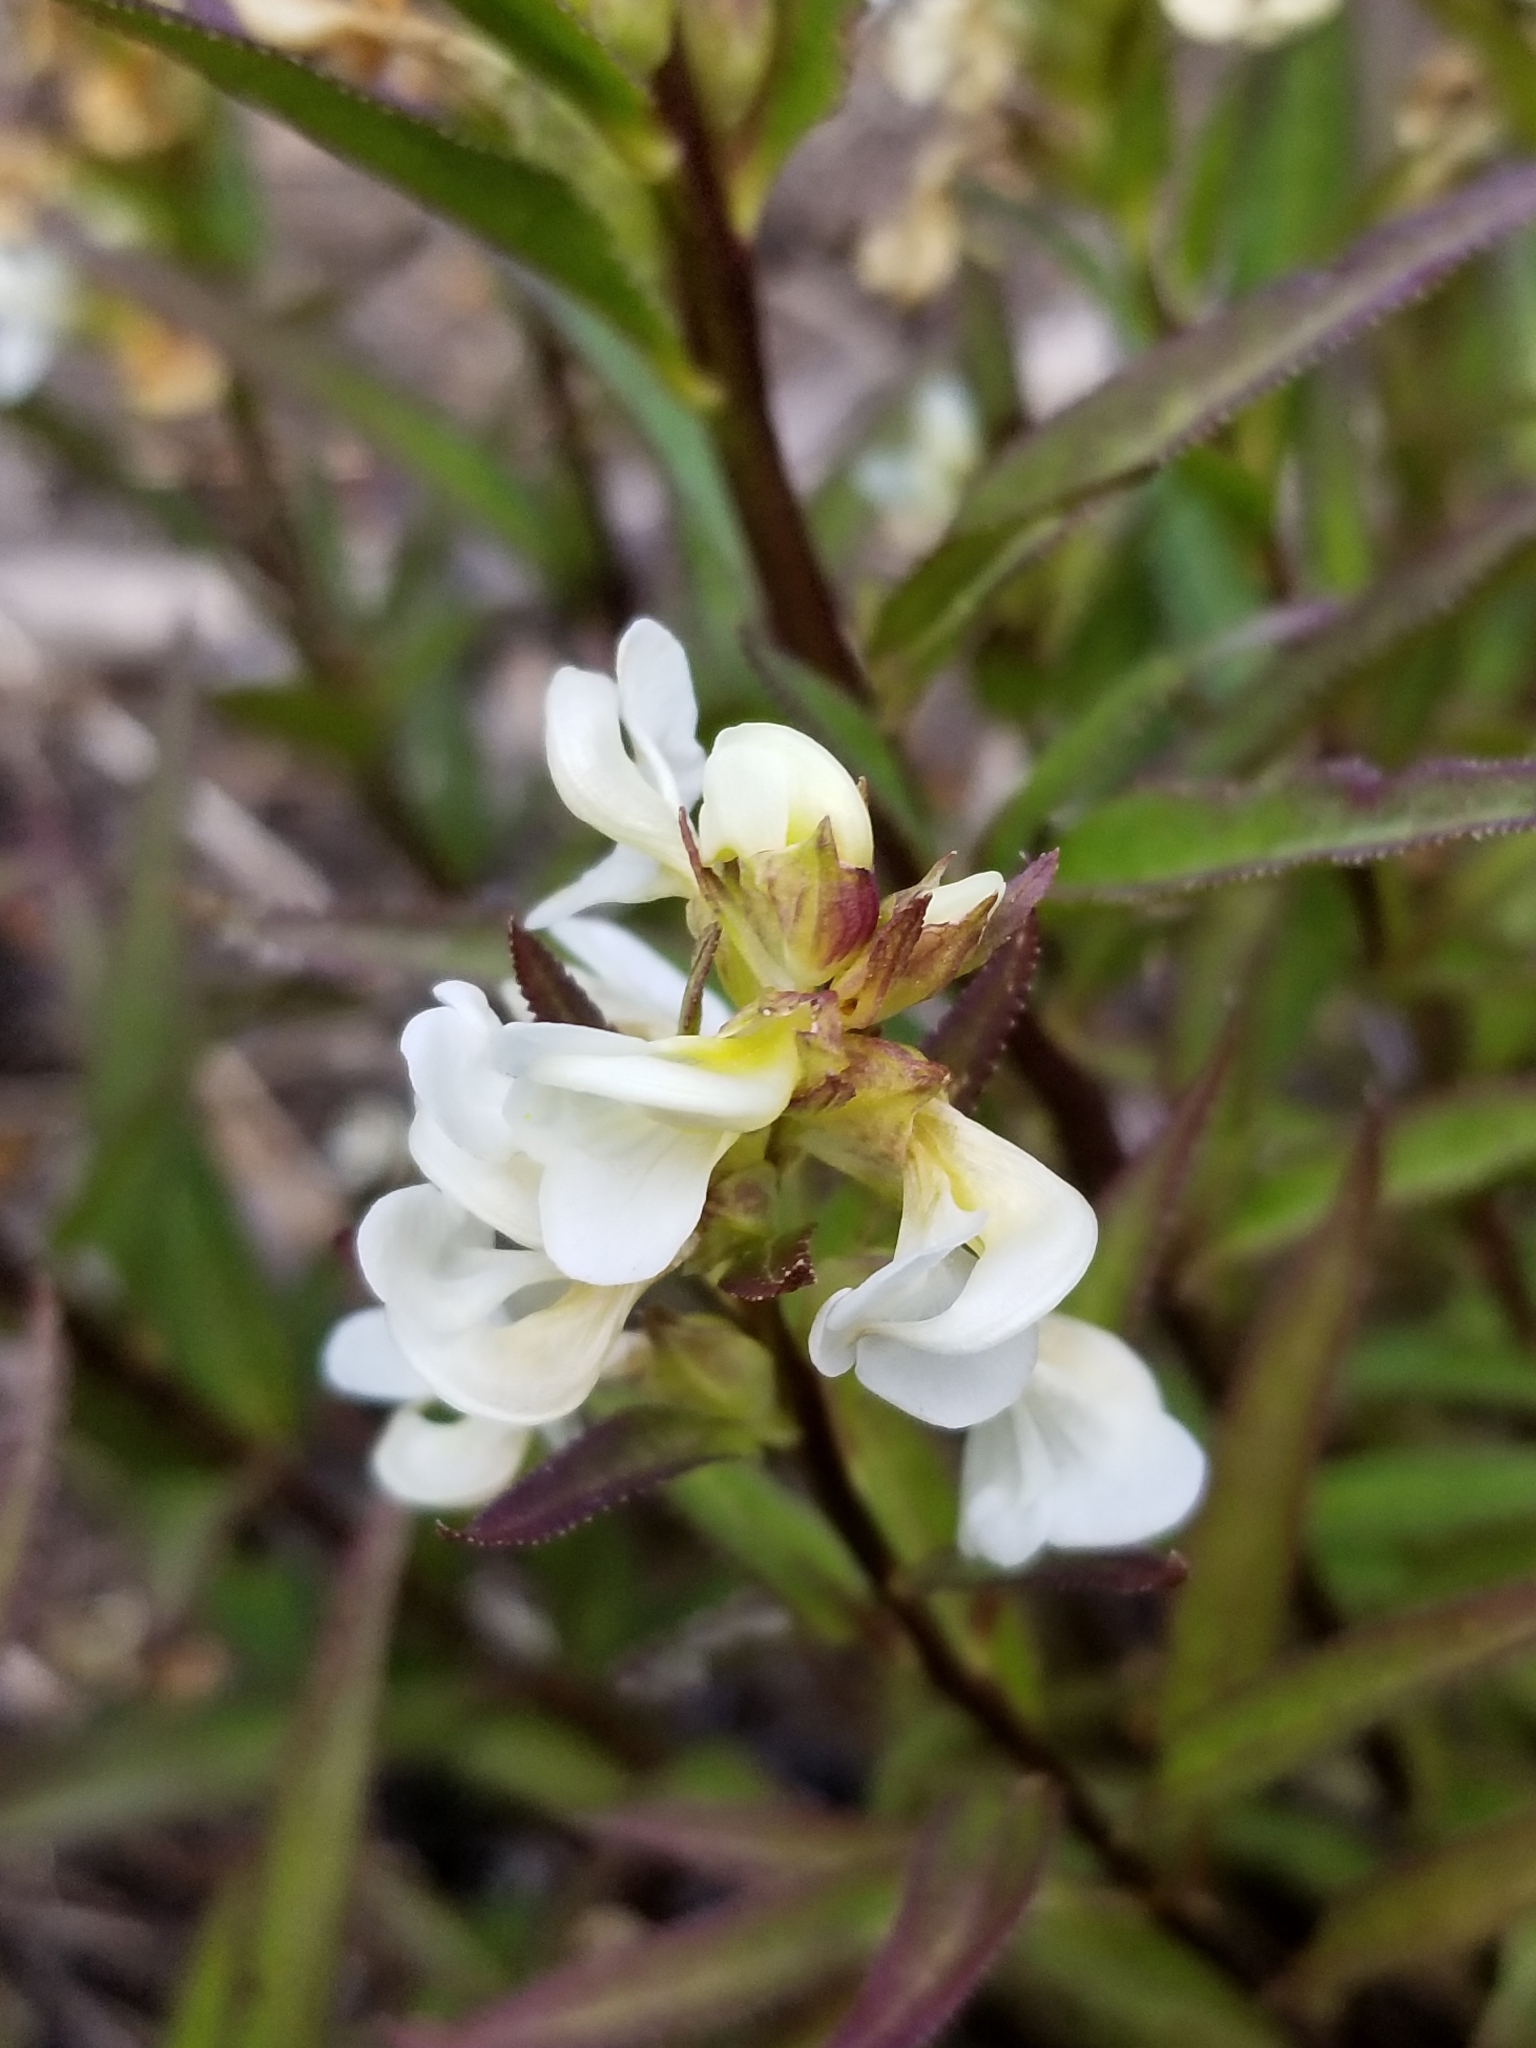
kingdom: Plantae
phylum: Tracheophyta
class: Magnoliopsida
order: Lamiales
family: Orobanchaceae
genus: Pedicularis
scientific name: Pedicularis racemosa
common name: Leafy lousewort
